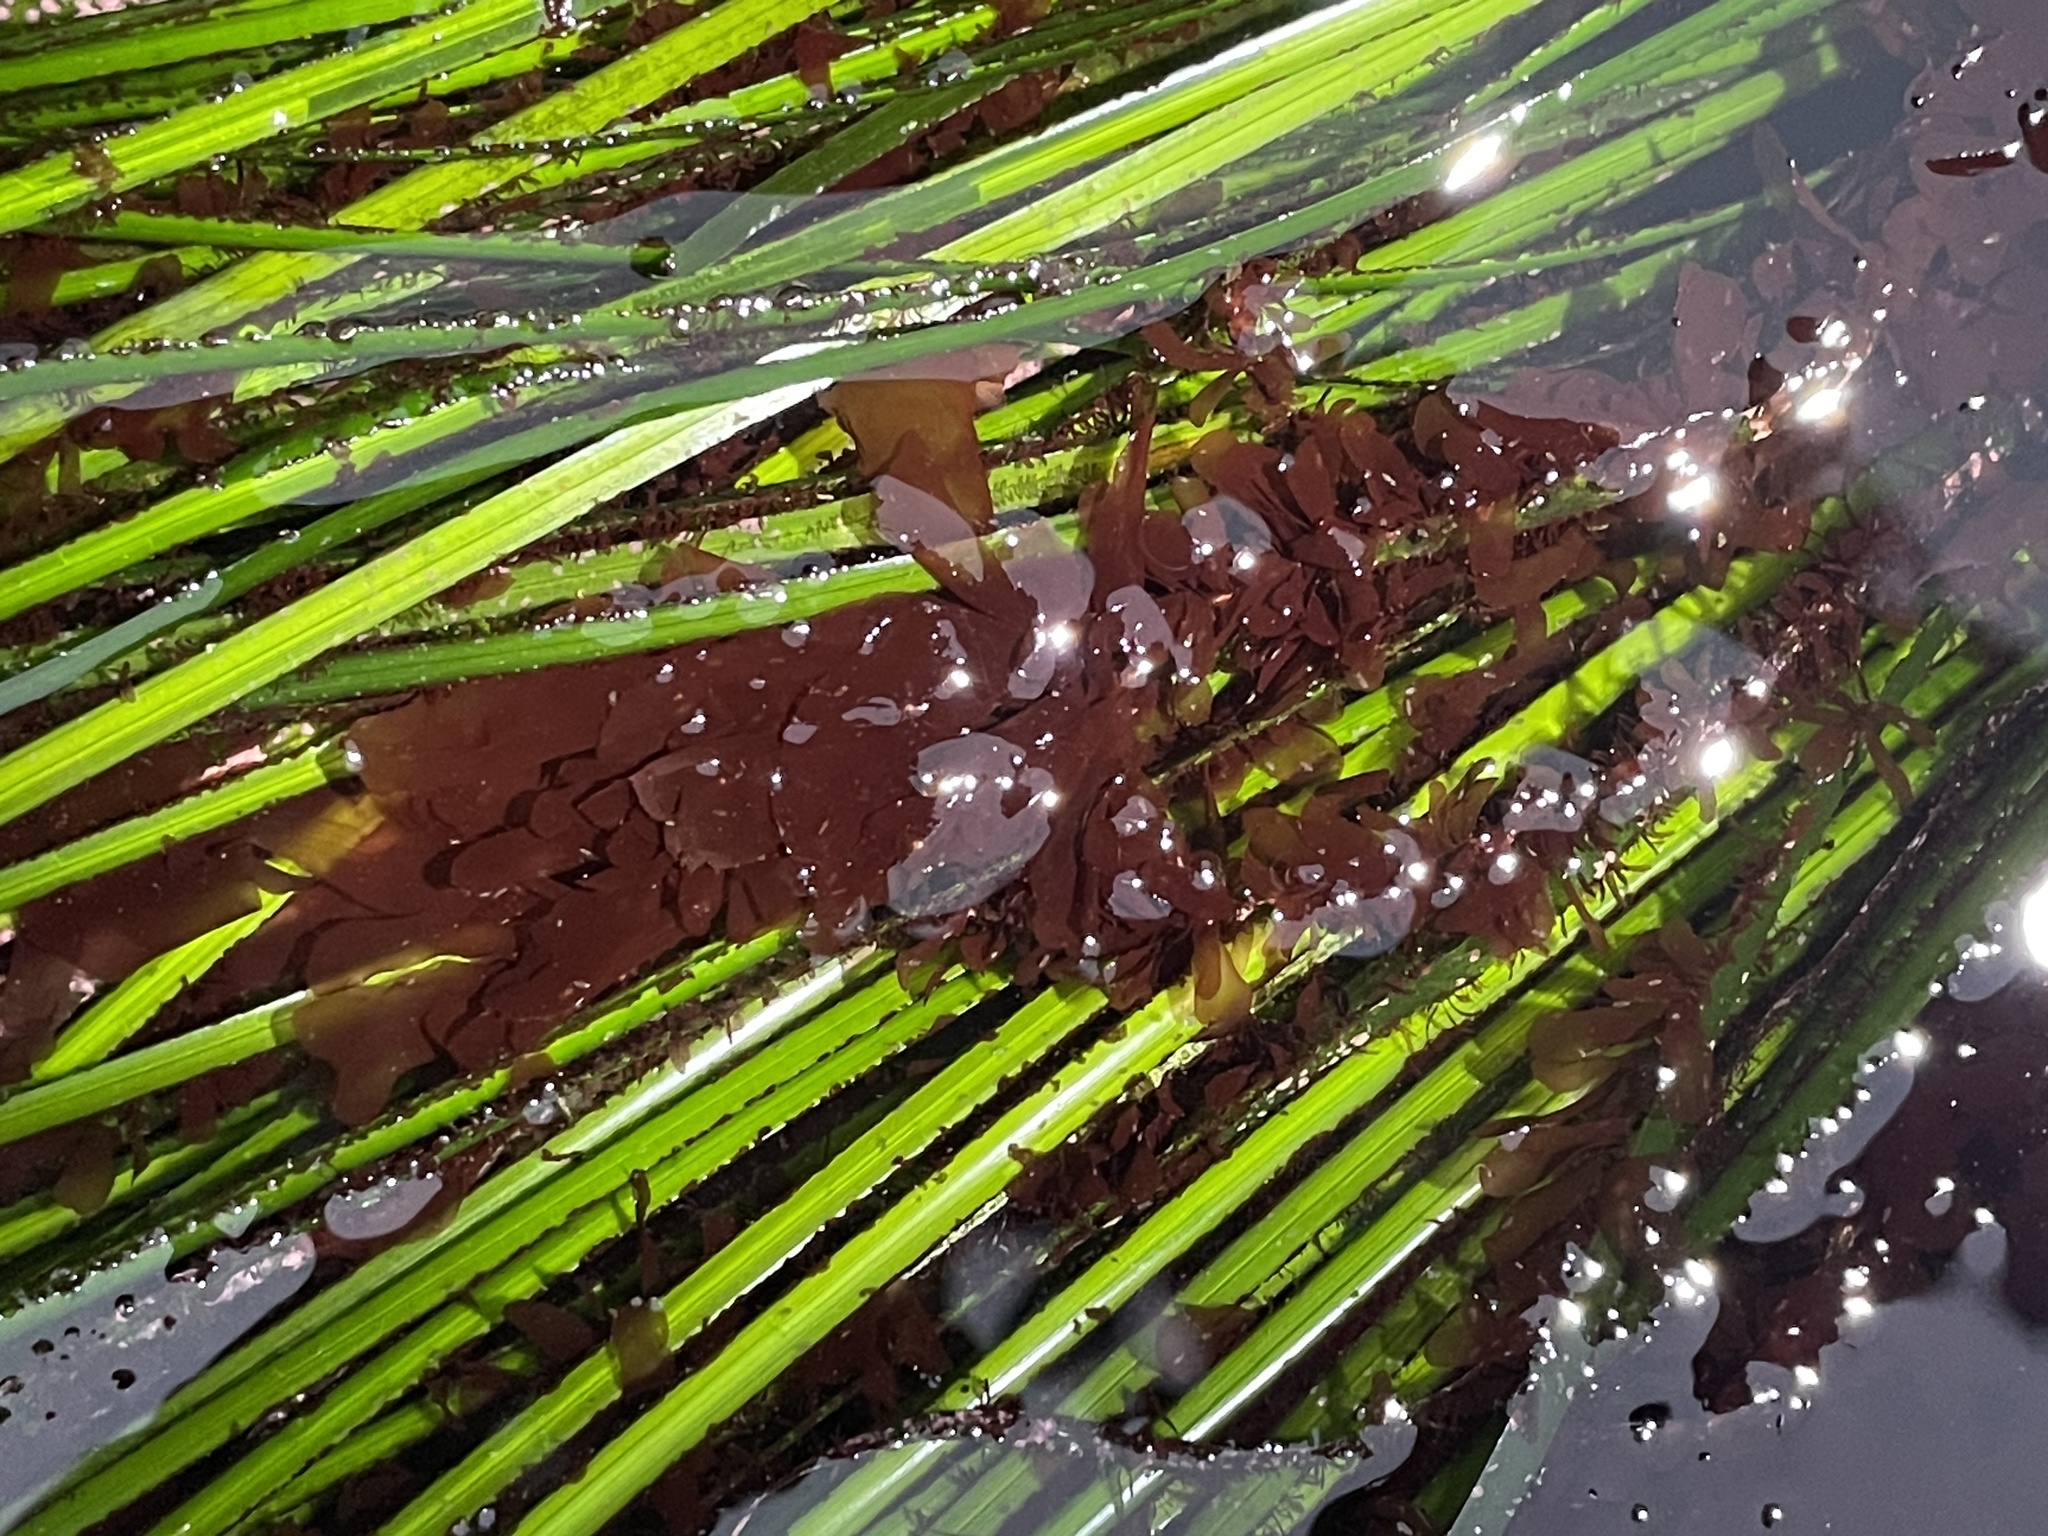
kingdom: Plantae
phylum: Rhodophyta
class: Compsopogonophyceae
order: Erythropeltidales
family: Erythrotrichiaceae
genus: Smithora
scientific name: Smithora naiadum
